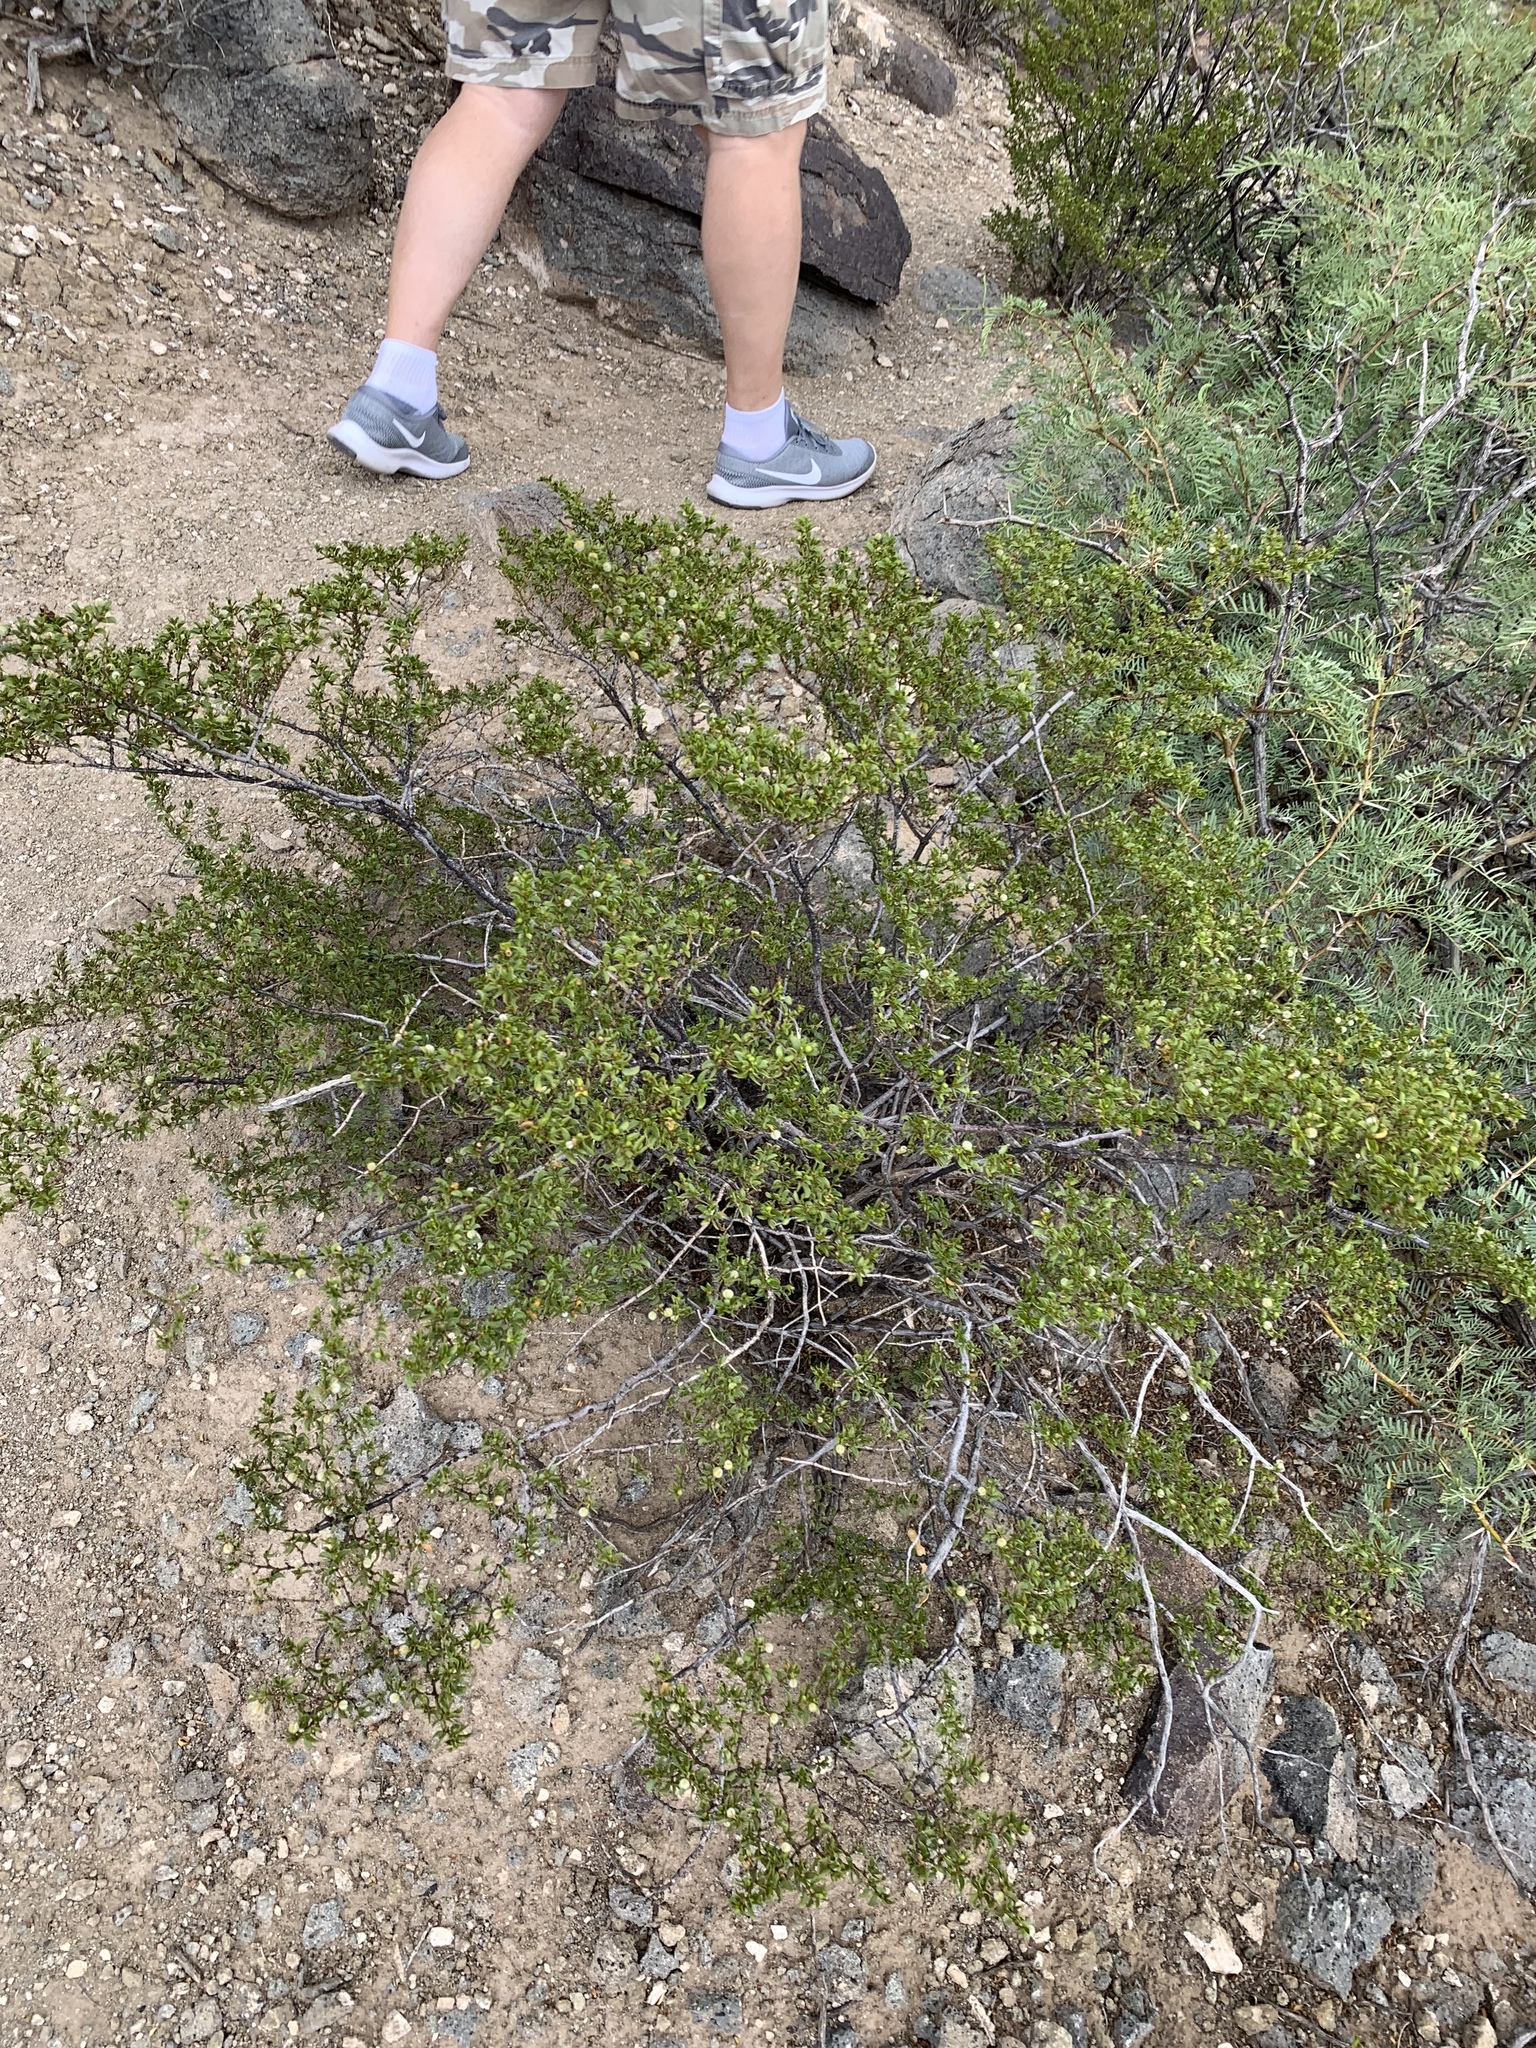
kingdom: Plantae
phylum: Tracheophyta
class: Magnoliopsida
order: Zygophyllales
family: Zygophyllaceae
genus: Larrea
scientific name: Larrea tridentata
